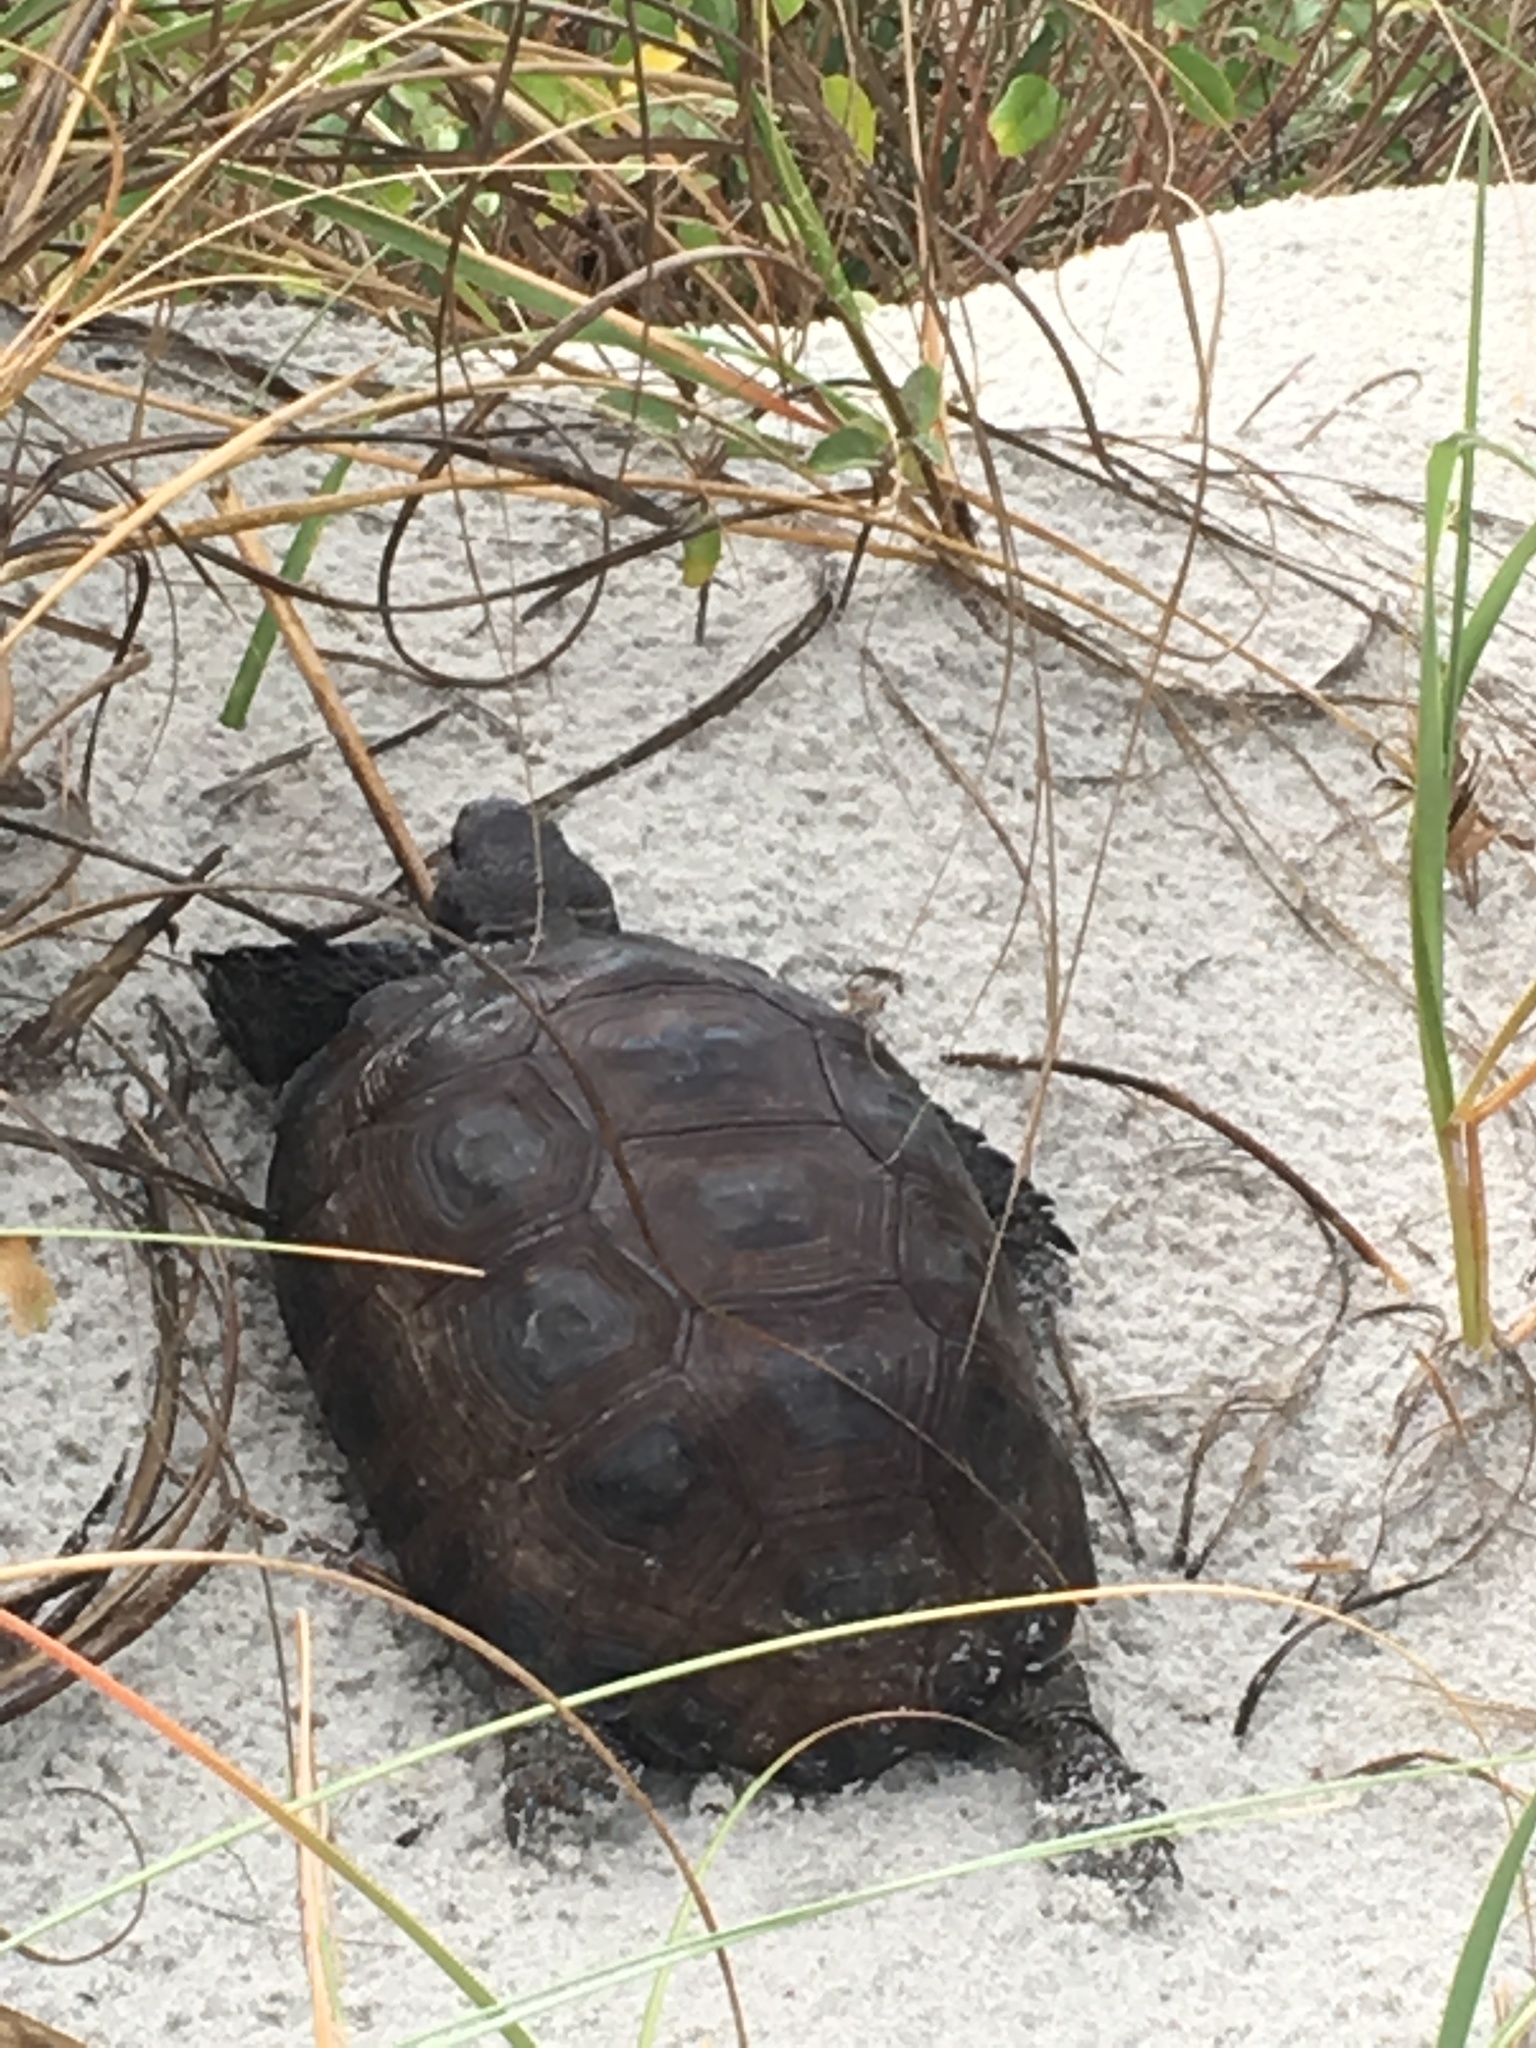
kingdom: Animalia
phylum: Chordata
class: Testudines
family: Testudinidae
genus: Gopherus
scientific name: Gopherus polyphemus
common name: Florida gopher tortoise
